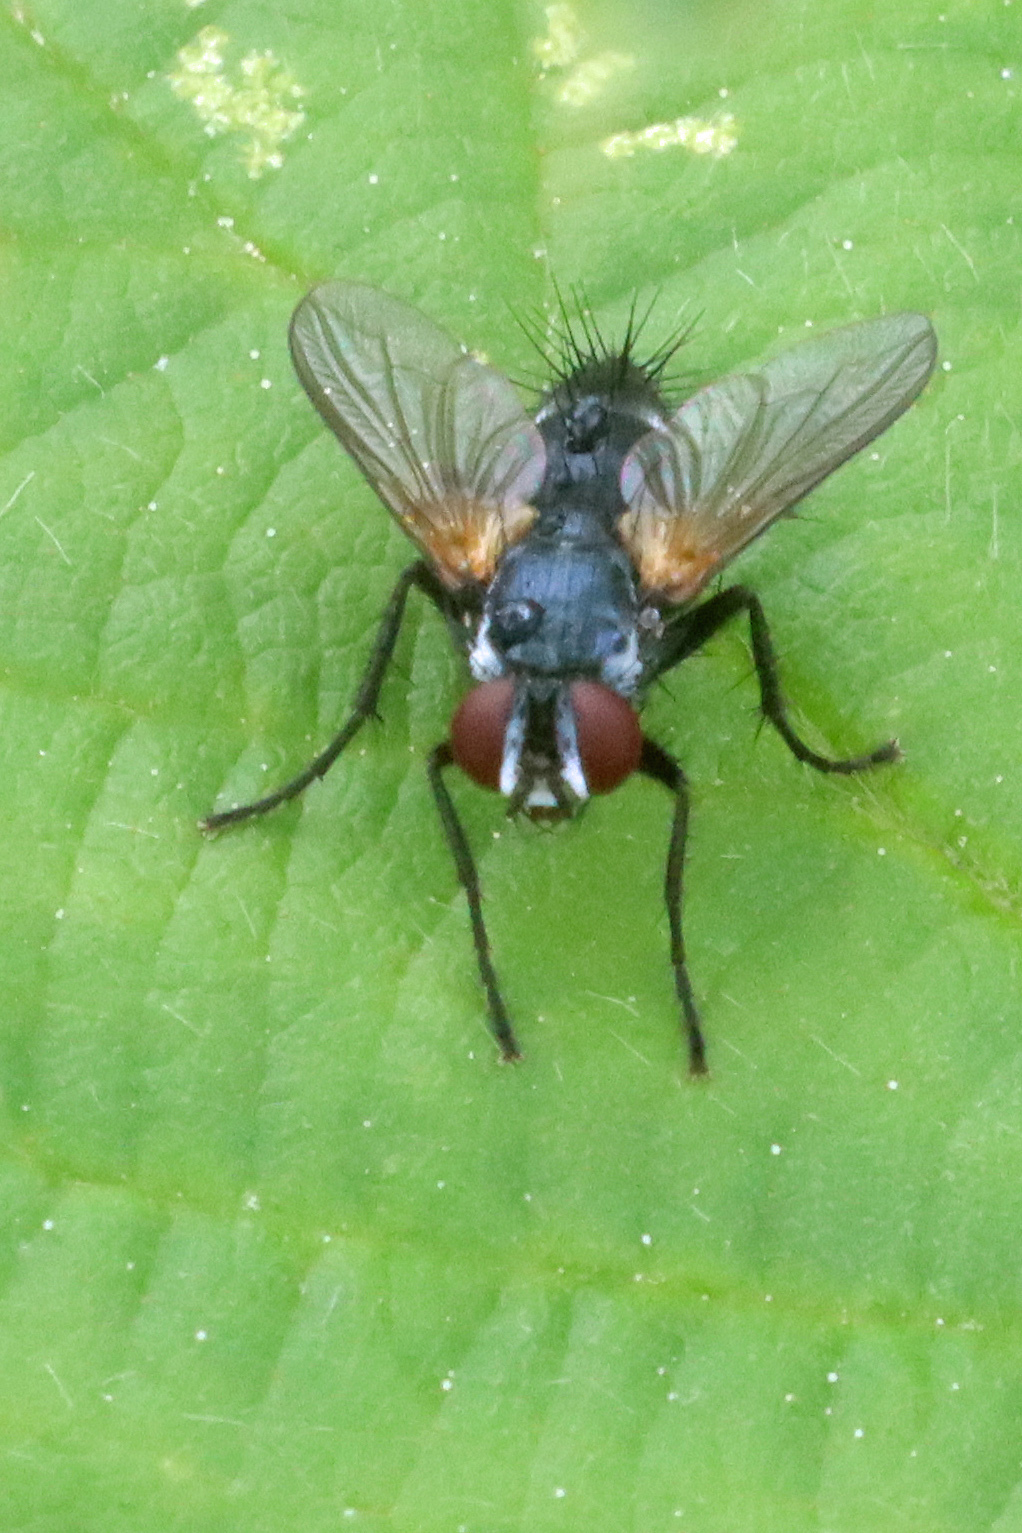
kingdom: Animalia
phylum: Arthropoda
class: Insecta
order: Diptera
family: Tachinidae
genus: Thelaira
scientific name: Thelaira
